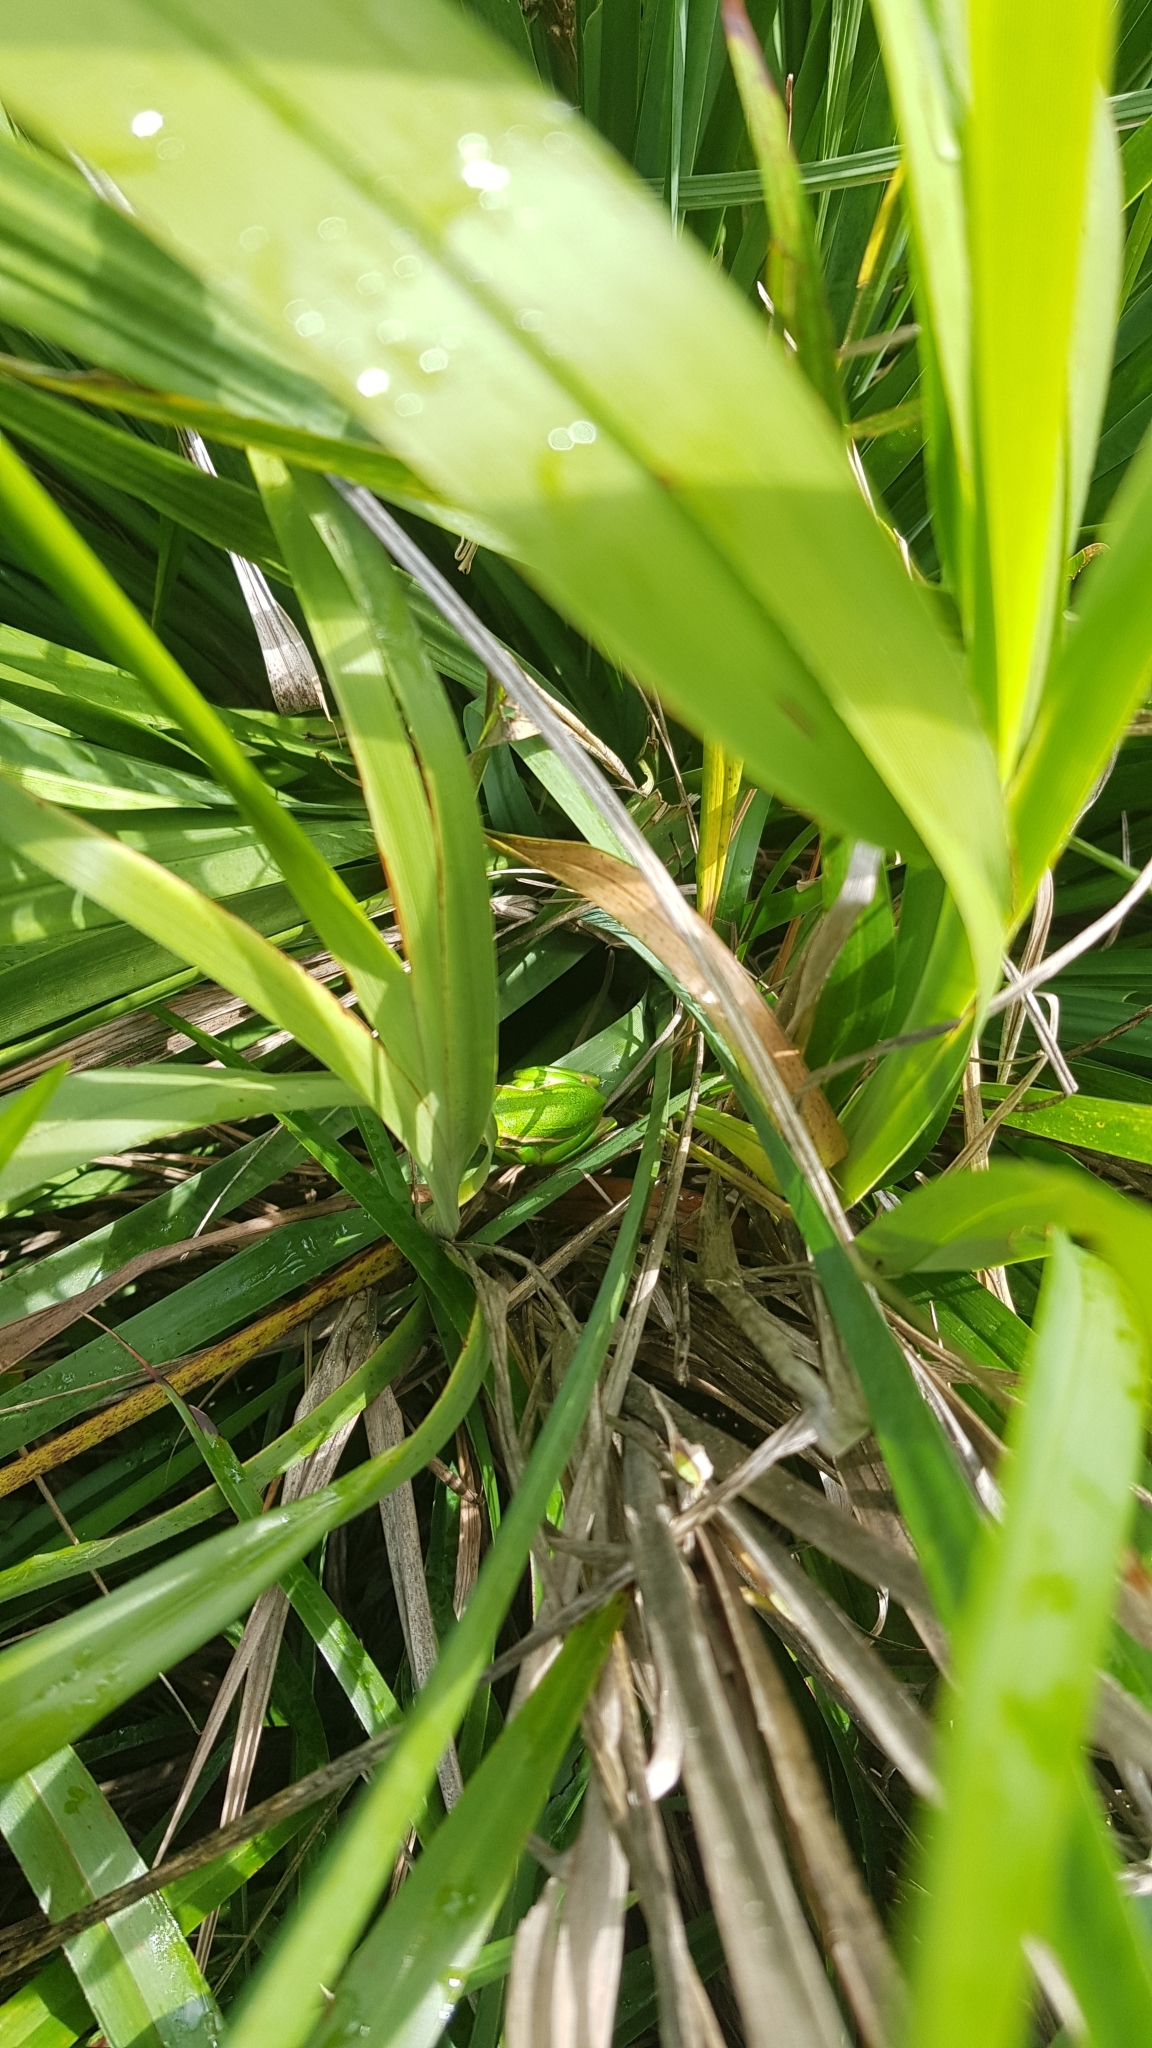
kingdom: Animalia
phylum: Chordata
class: Amphibia
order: Anura
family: Pelodryadidae
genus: Ranoidea
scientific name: Ranoidea aurea
